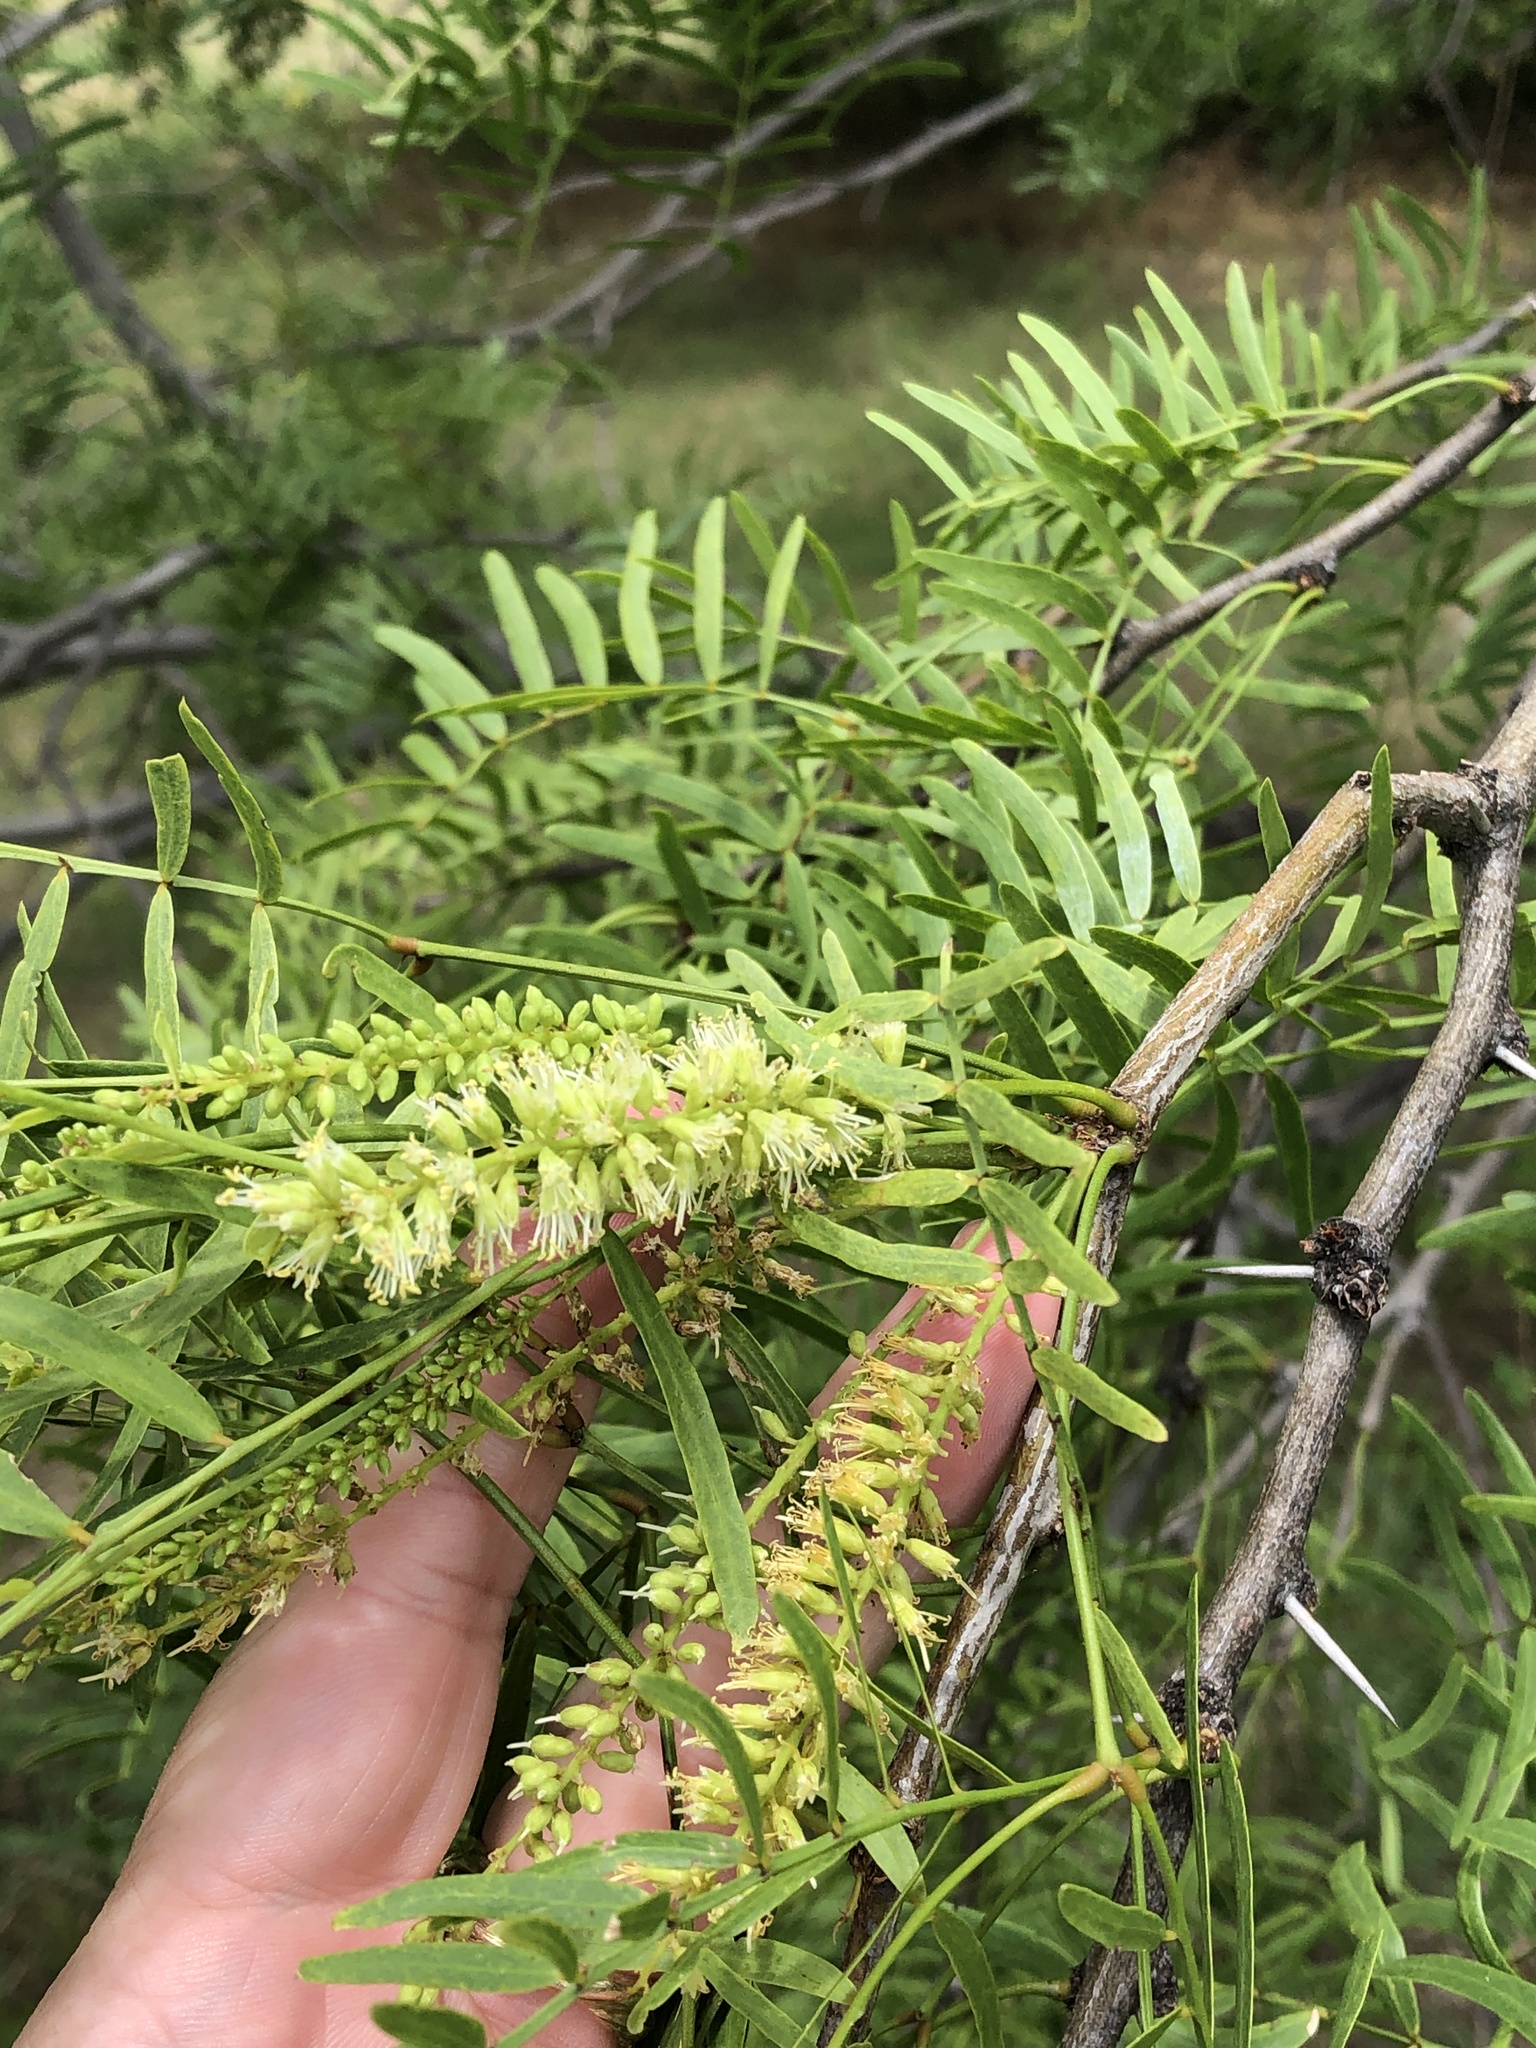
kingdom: Plantae
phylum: Tracheophyta
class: Magnoliopsida
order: Fabales
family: Fabaceae
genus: Prosopis
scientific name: Prosopis glandulosa
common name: Honey mesquite
